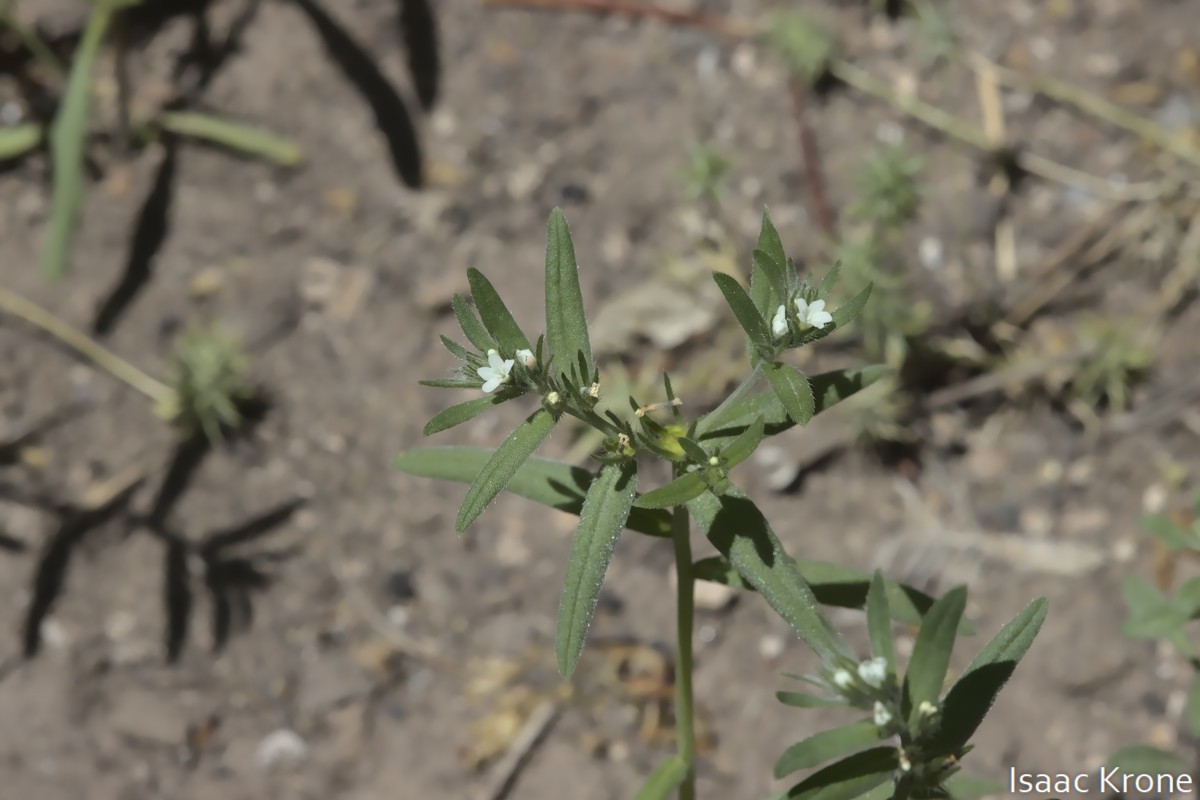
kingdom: Plantae
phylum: Tracheophyta
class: Magnoliopsida
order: Boraginales
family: Boraginaceae
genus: Buglossoides
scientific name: Buglossoides arvensis
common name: Corn gromwell
